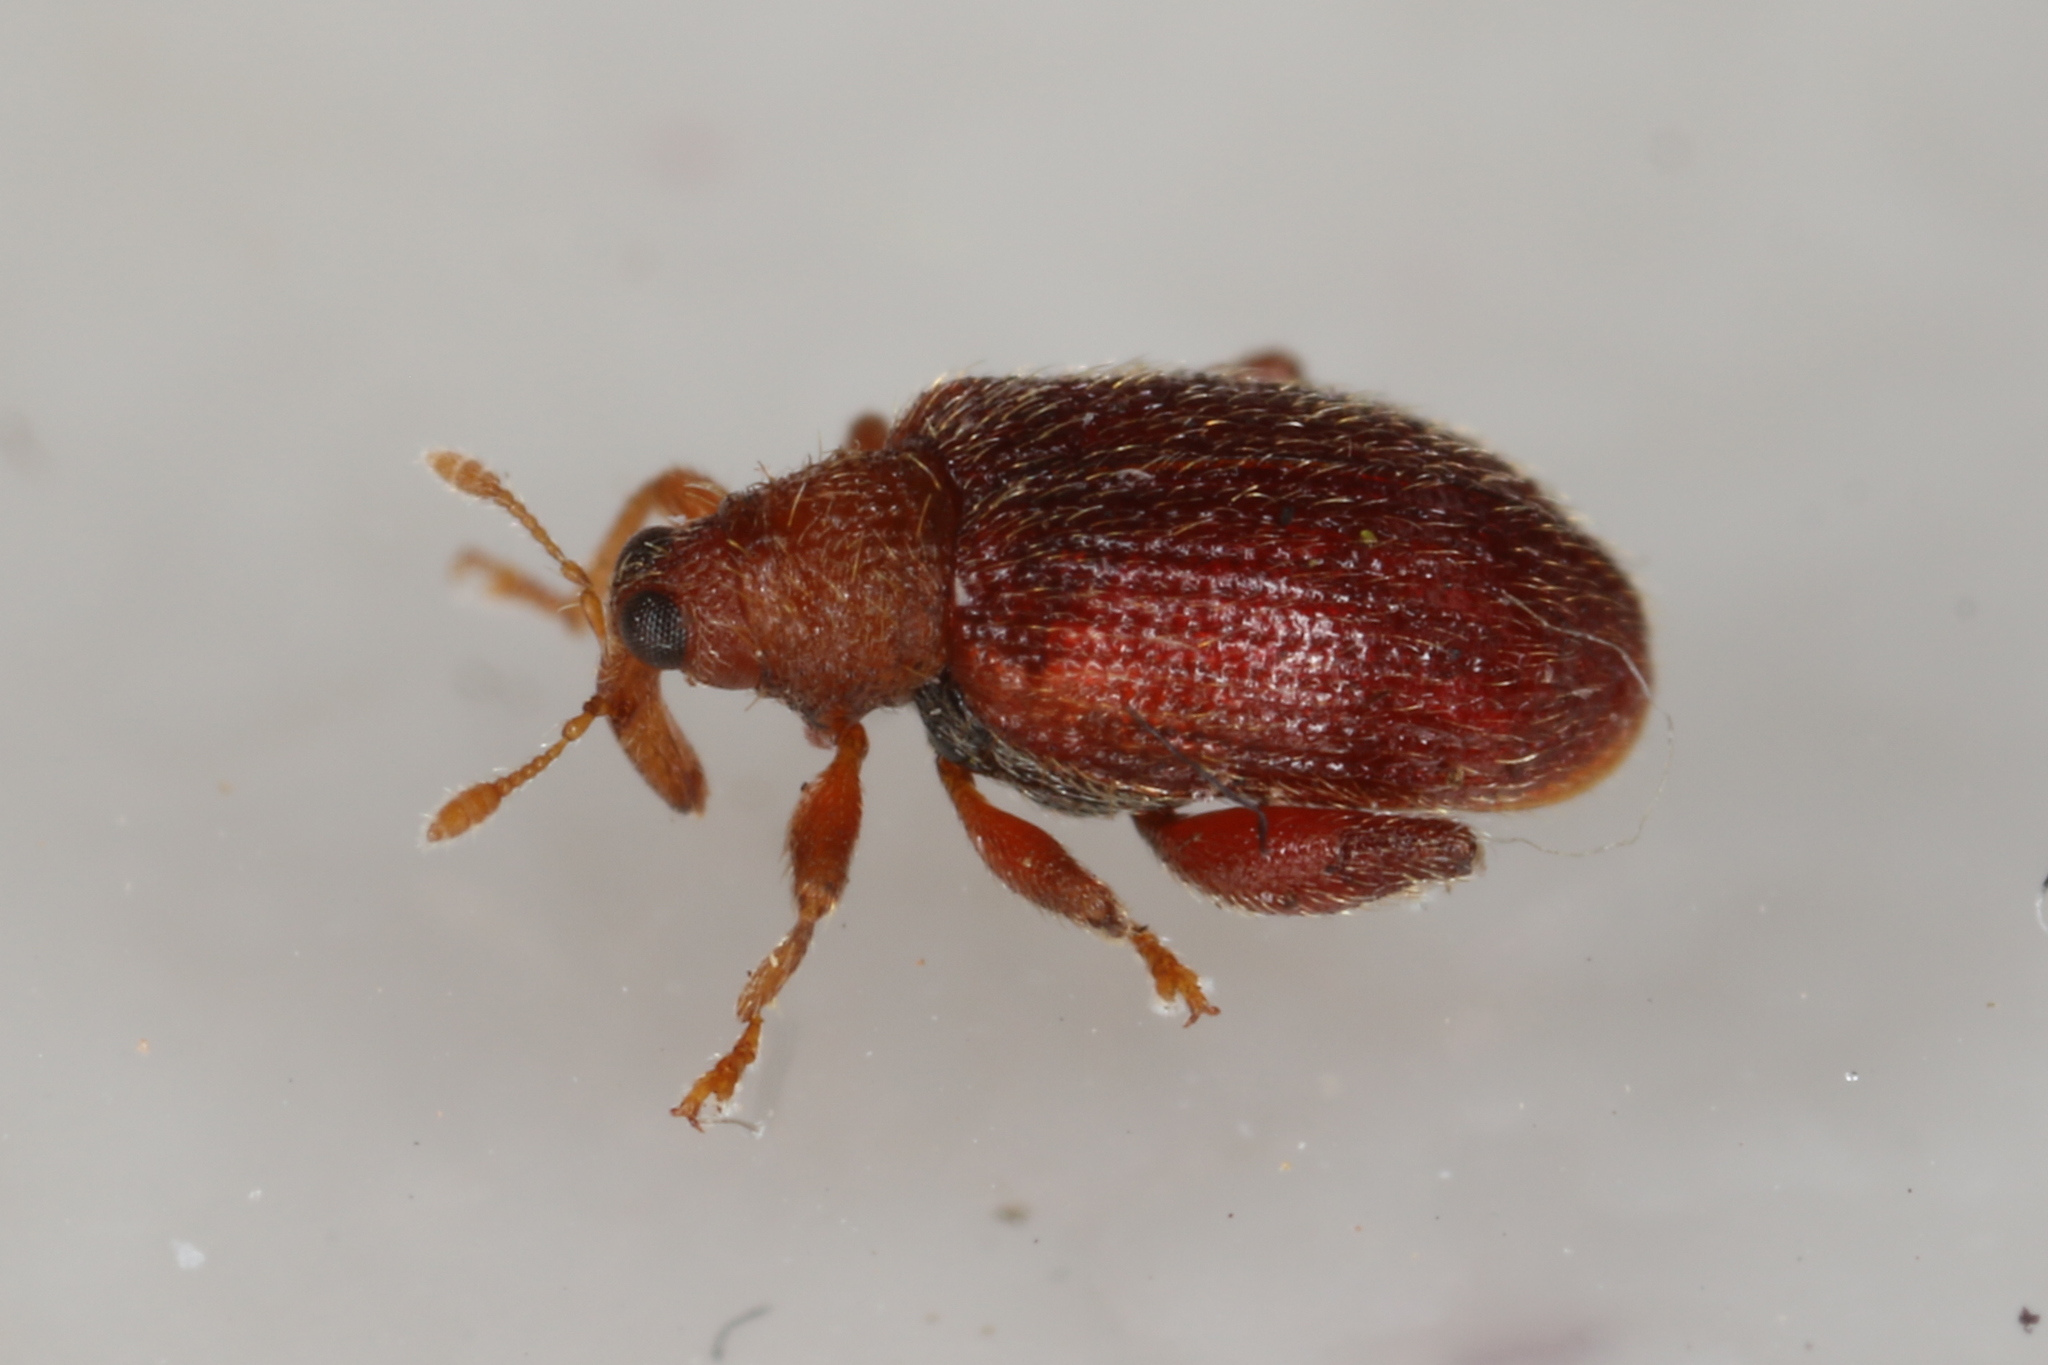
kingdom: Animalia
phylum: Arthropoda
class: Insecta
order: Coleoptera
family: Curculionidae
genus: Orchestes
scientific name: Orchestes betuleti
